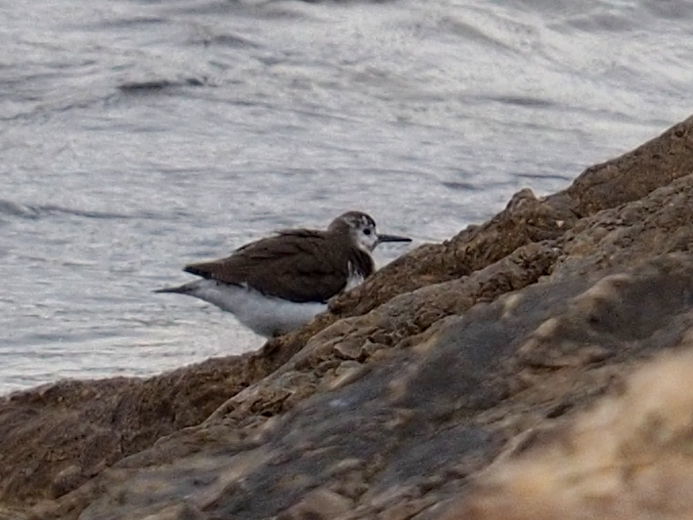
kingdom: Animalia
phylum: Chordata
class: Aves
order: Charadriiformes
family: Scolopacidae
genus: Actitis
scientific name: Actitis hypoleucos
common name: Common sandpiper
